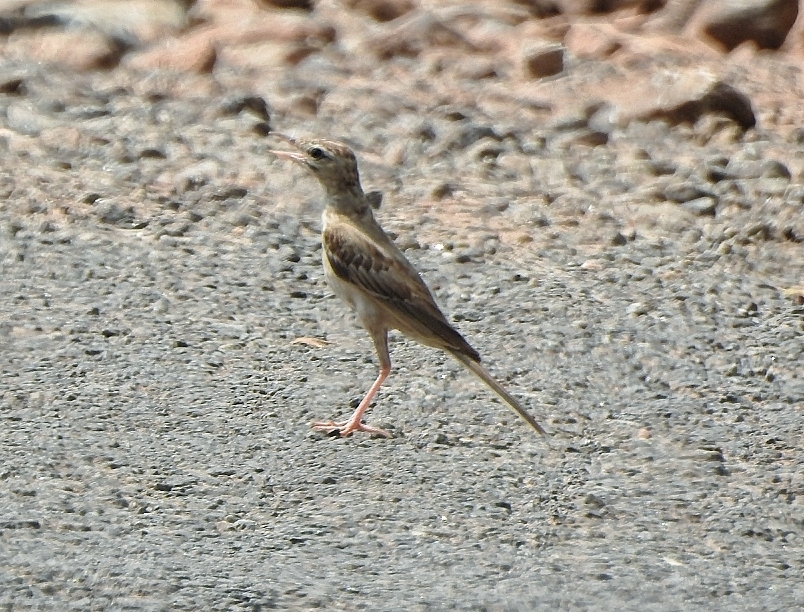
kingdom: Animalia
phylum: Chordata
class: Aves
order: Passeriformes
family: Motacillidae
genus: Anthus
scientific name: Anthus campestris
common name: Tawny pipit
